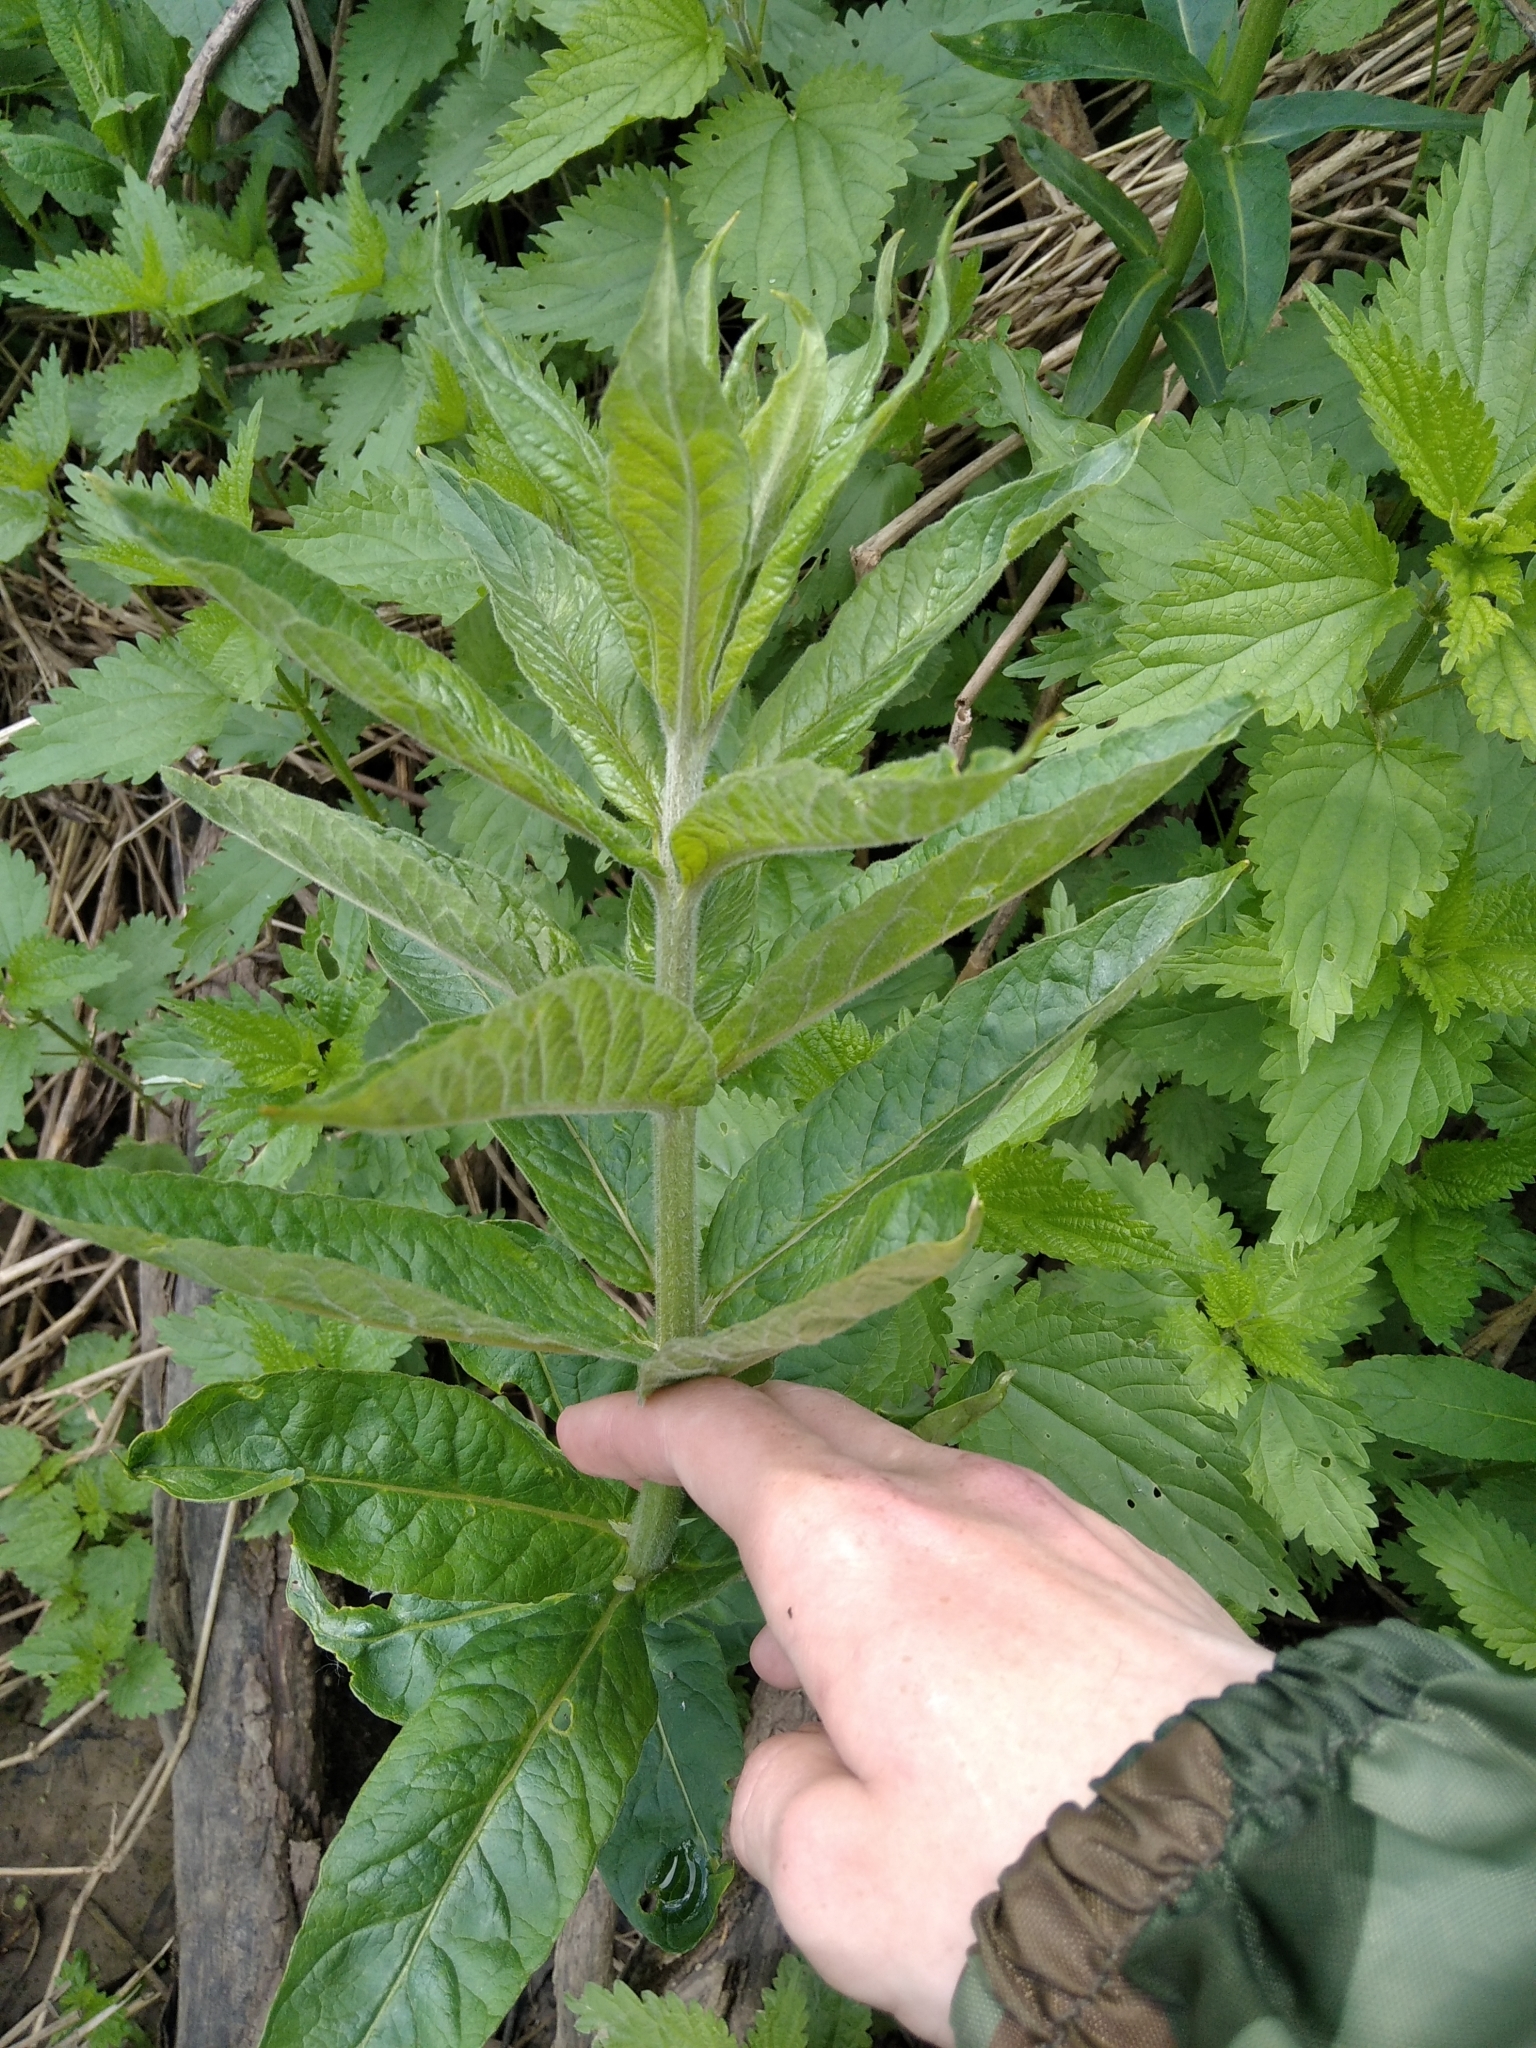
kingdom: Plantae
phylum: Tracheophyta
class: Magnoliopsida
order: Ericales
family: Primulaceae
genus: Lysimachia
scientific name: Lysimachia vulgaris
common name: Yellow loosestrife
